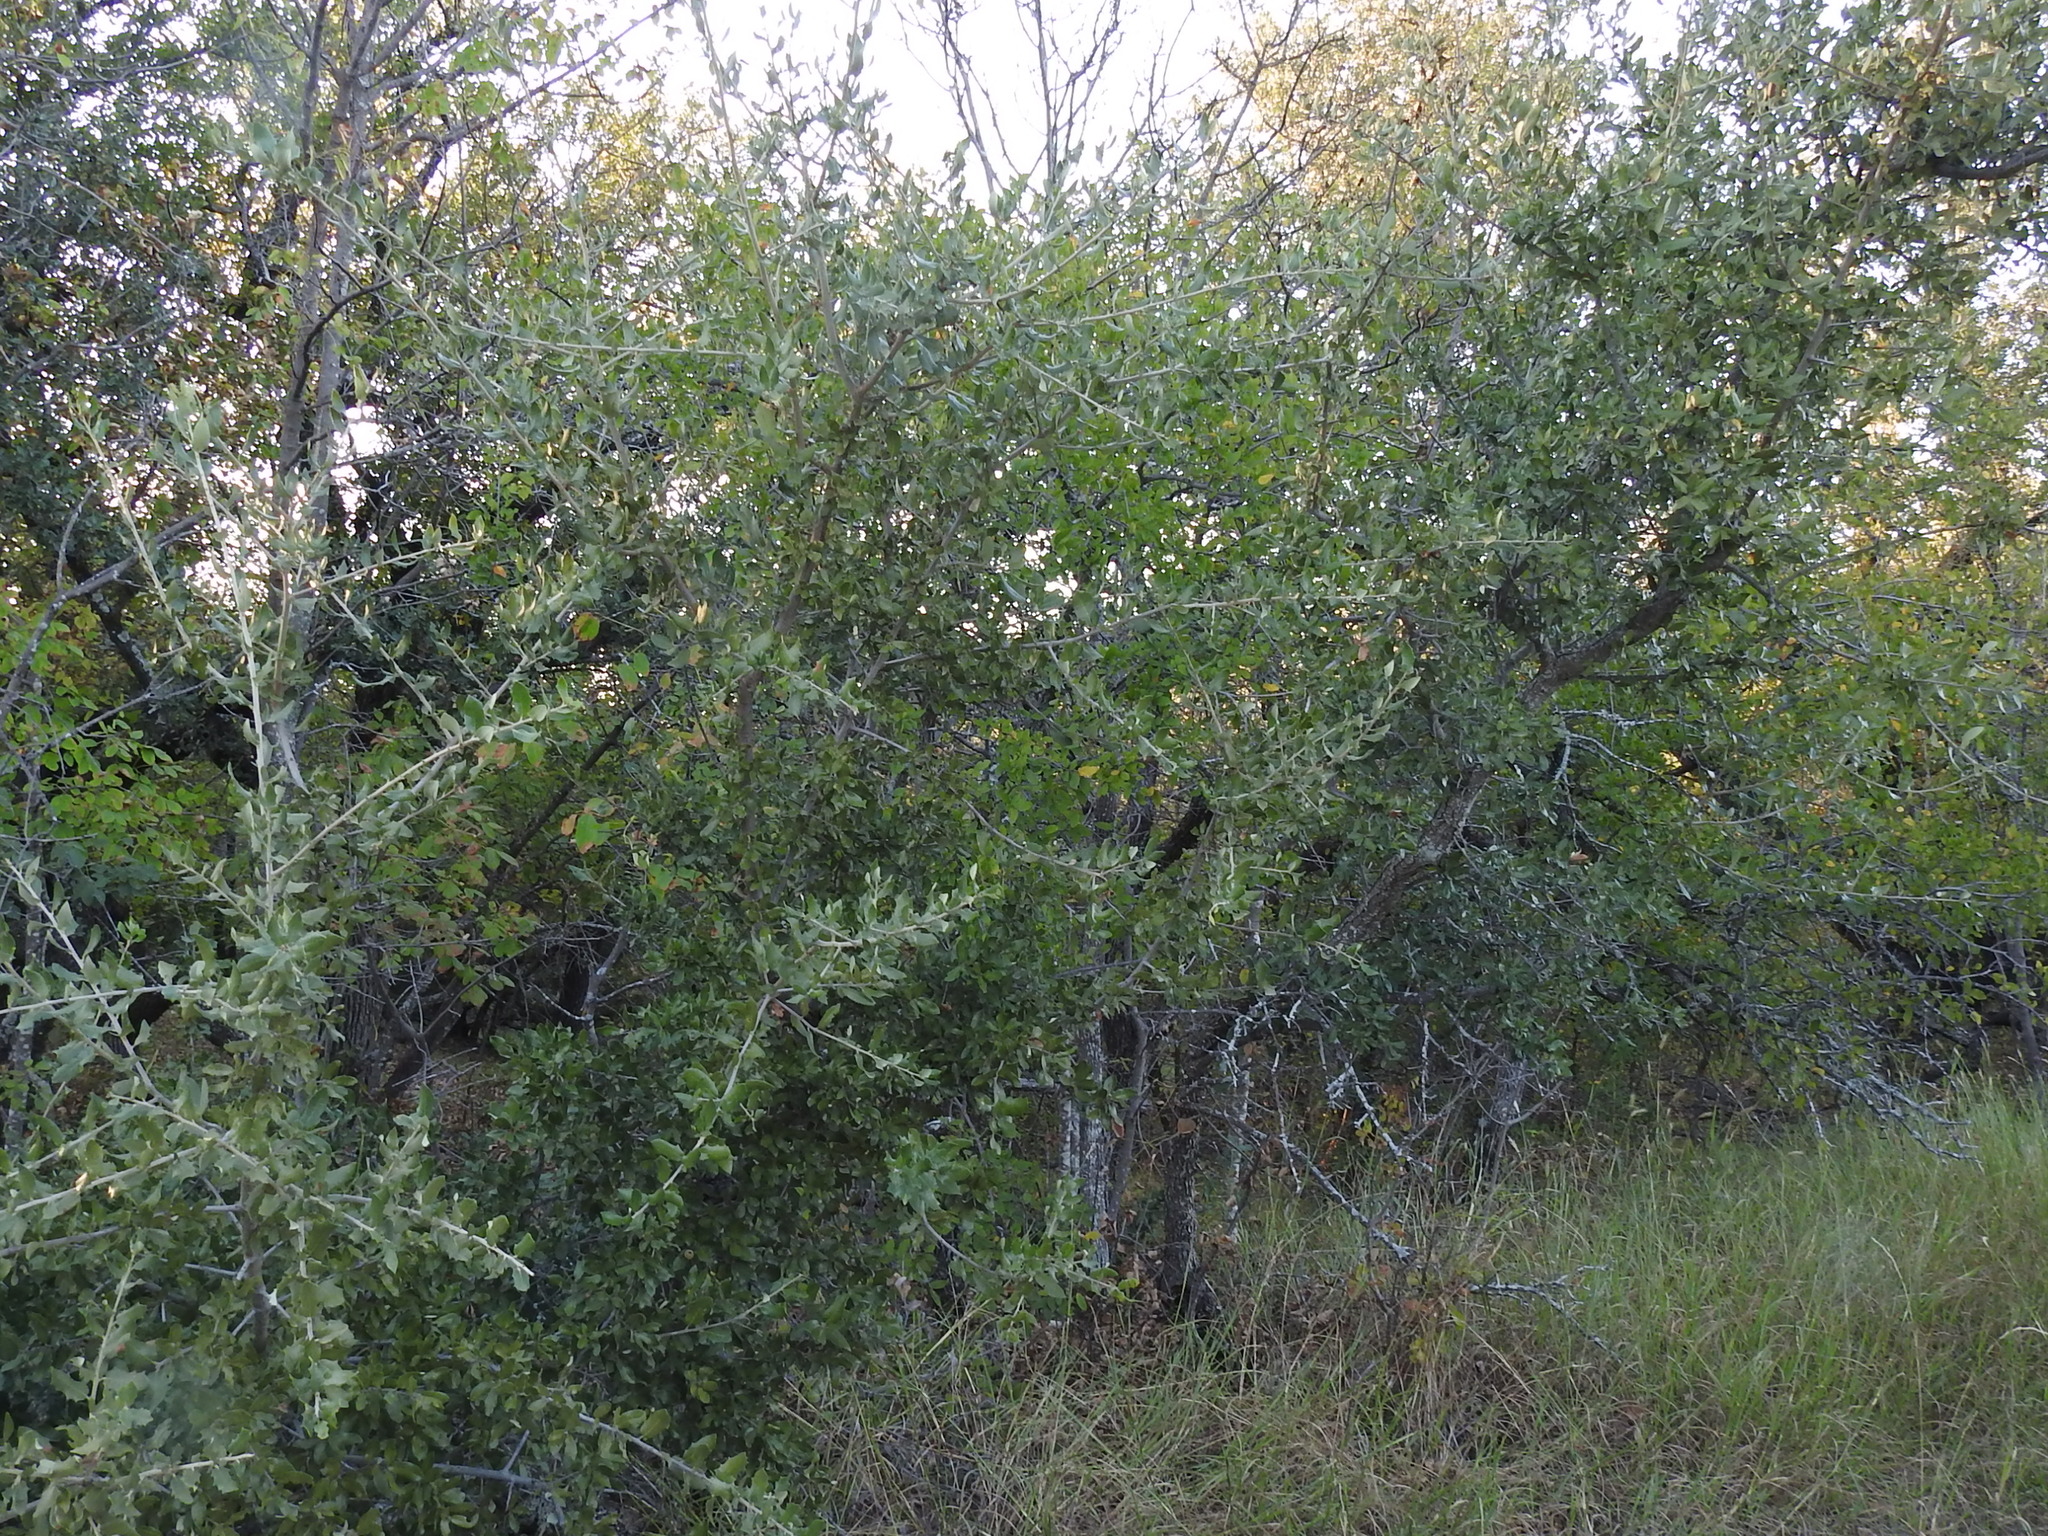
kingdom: Plantae
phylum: Tracheophyta
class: Magnoliopsida
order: Fagales
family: Fagaceae
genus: Quercus
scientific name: Quercus fusiformis
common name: Texas live oak
